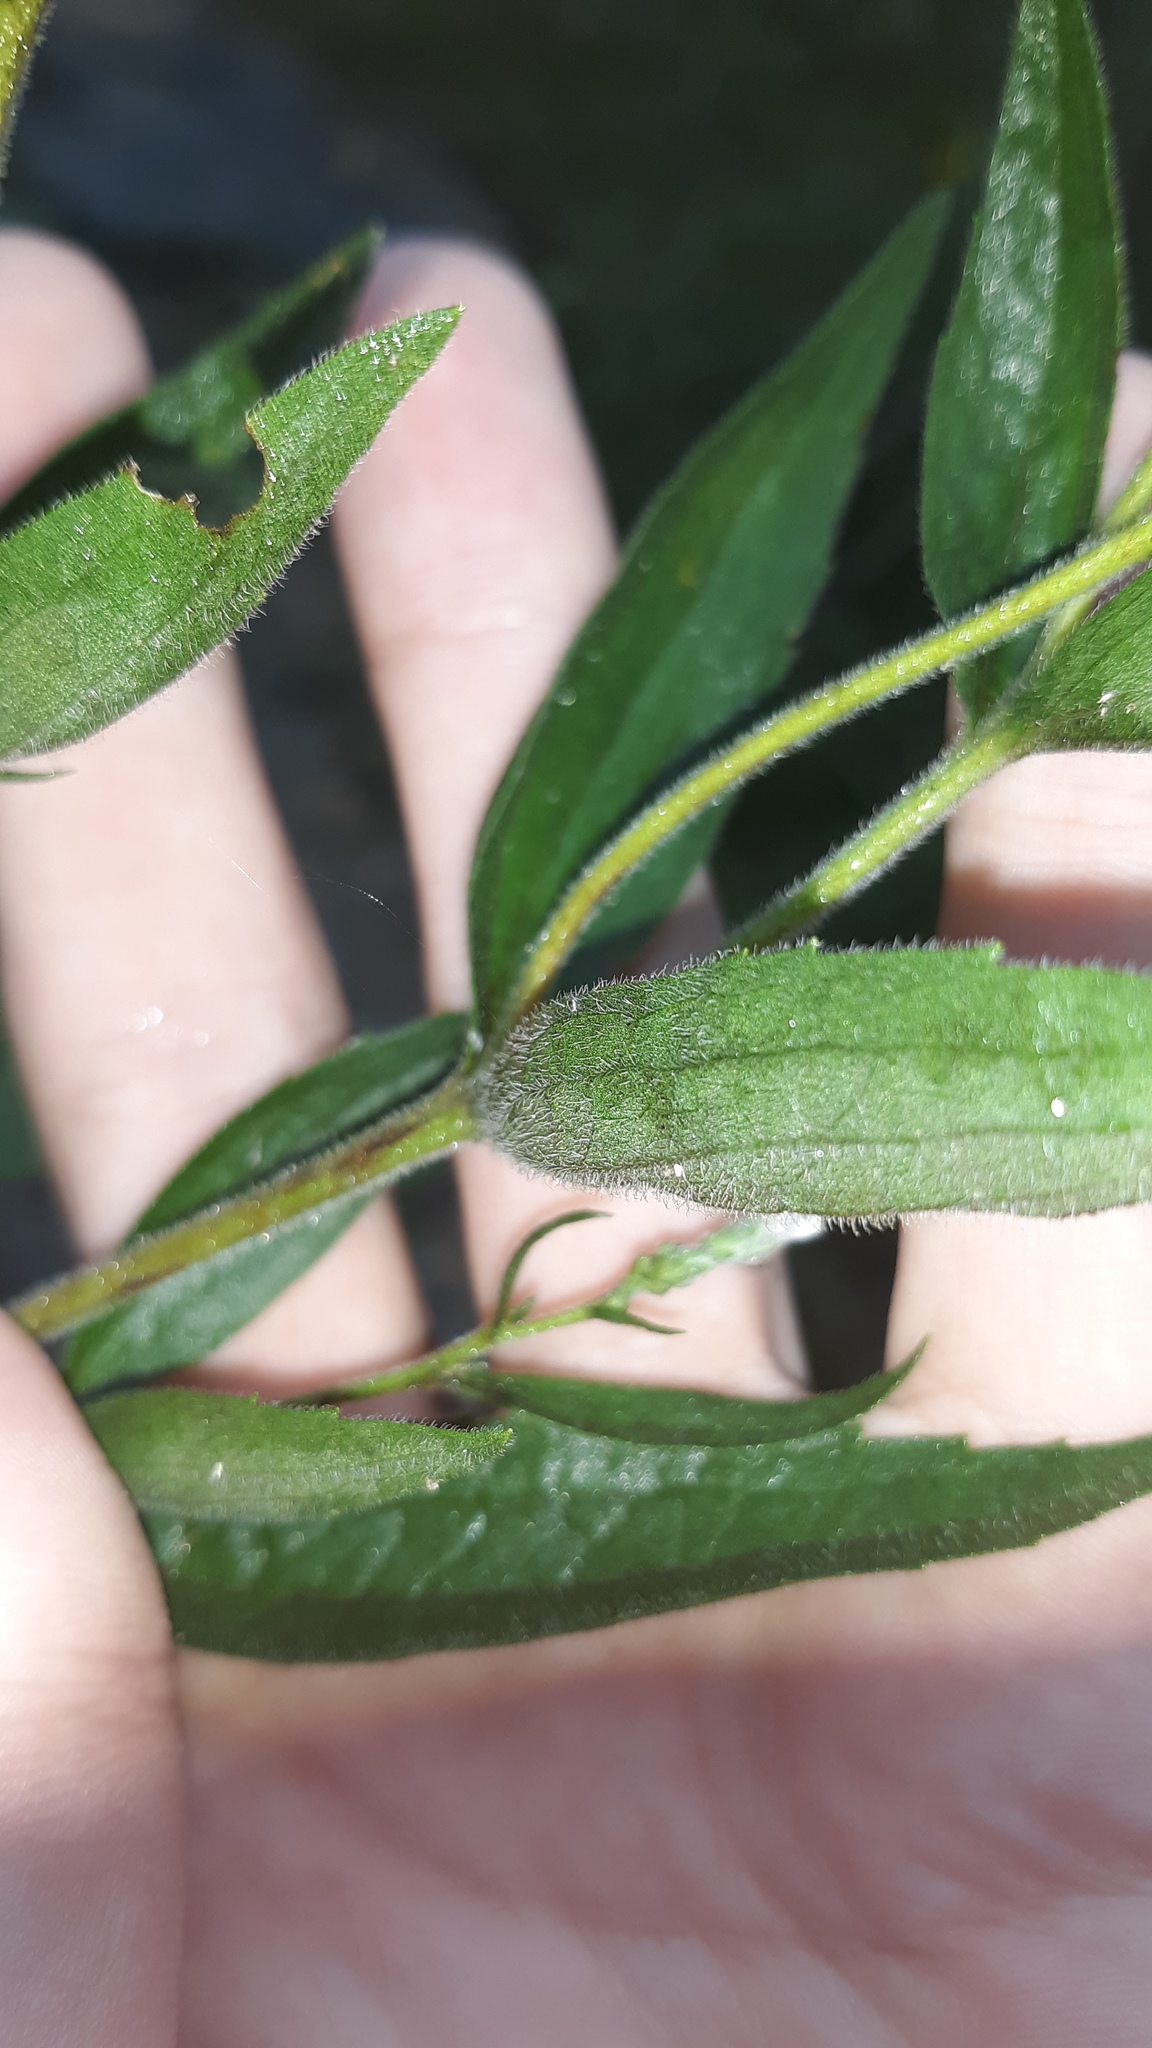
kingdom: Plantae
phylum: Tracheophyta
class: Magnoliopsida
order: Asterales
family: Asteraceae
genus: Eupatorium
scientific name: Eupatorium godfreyanum
